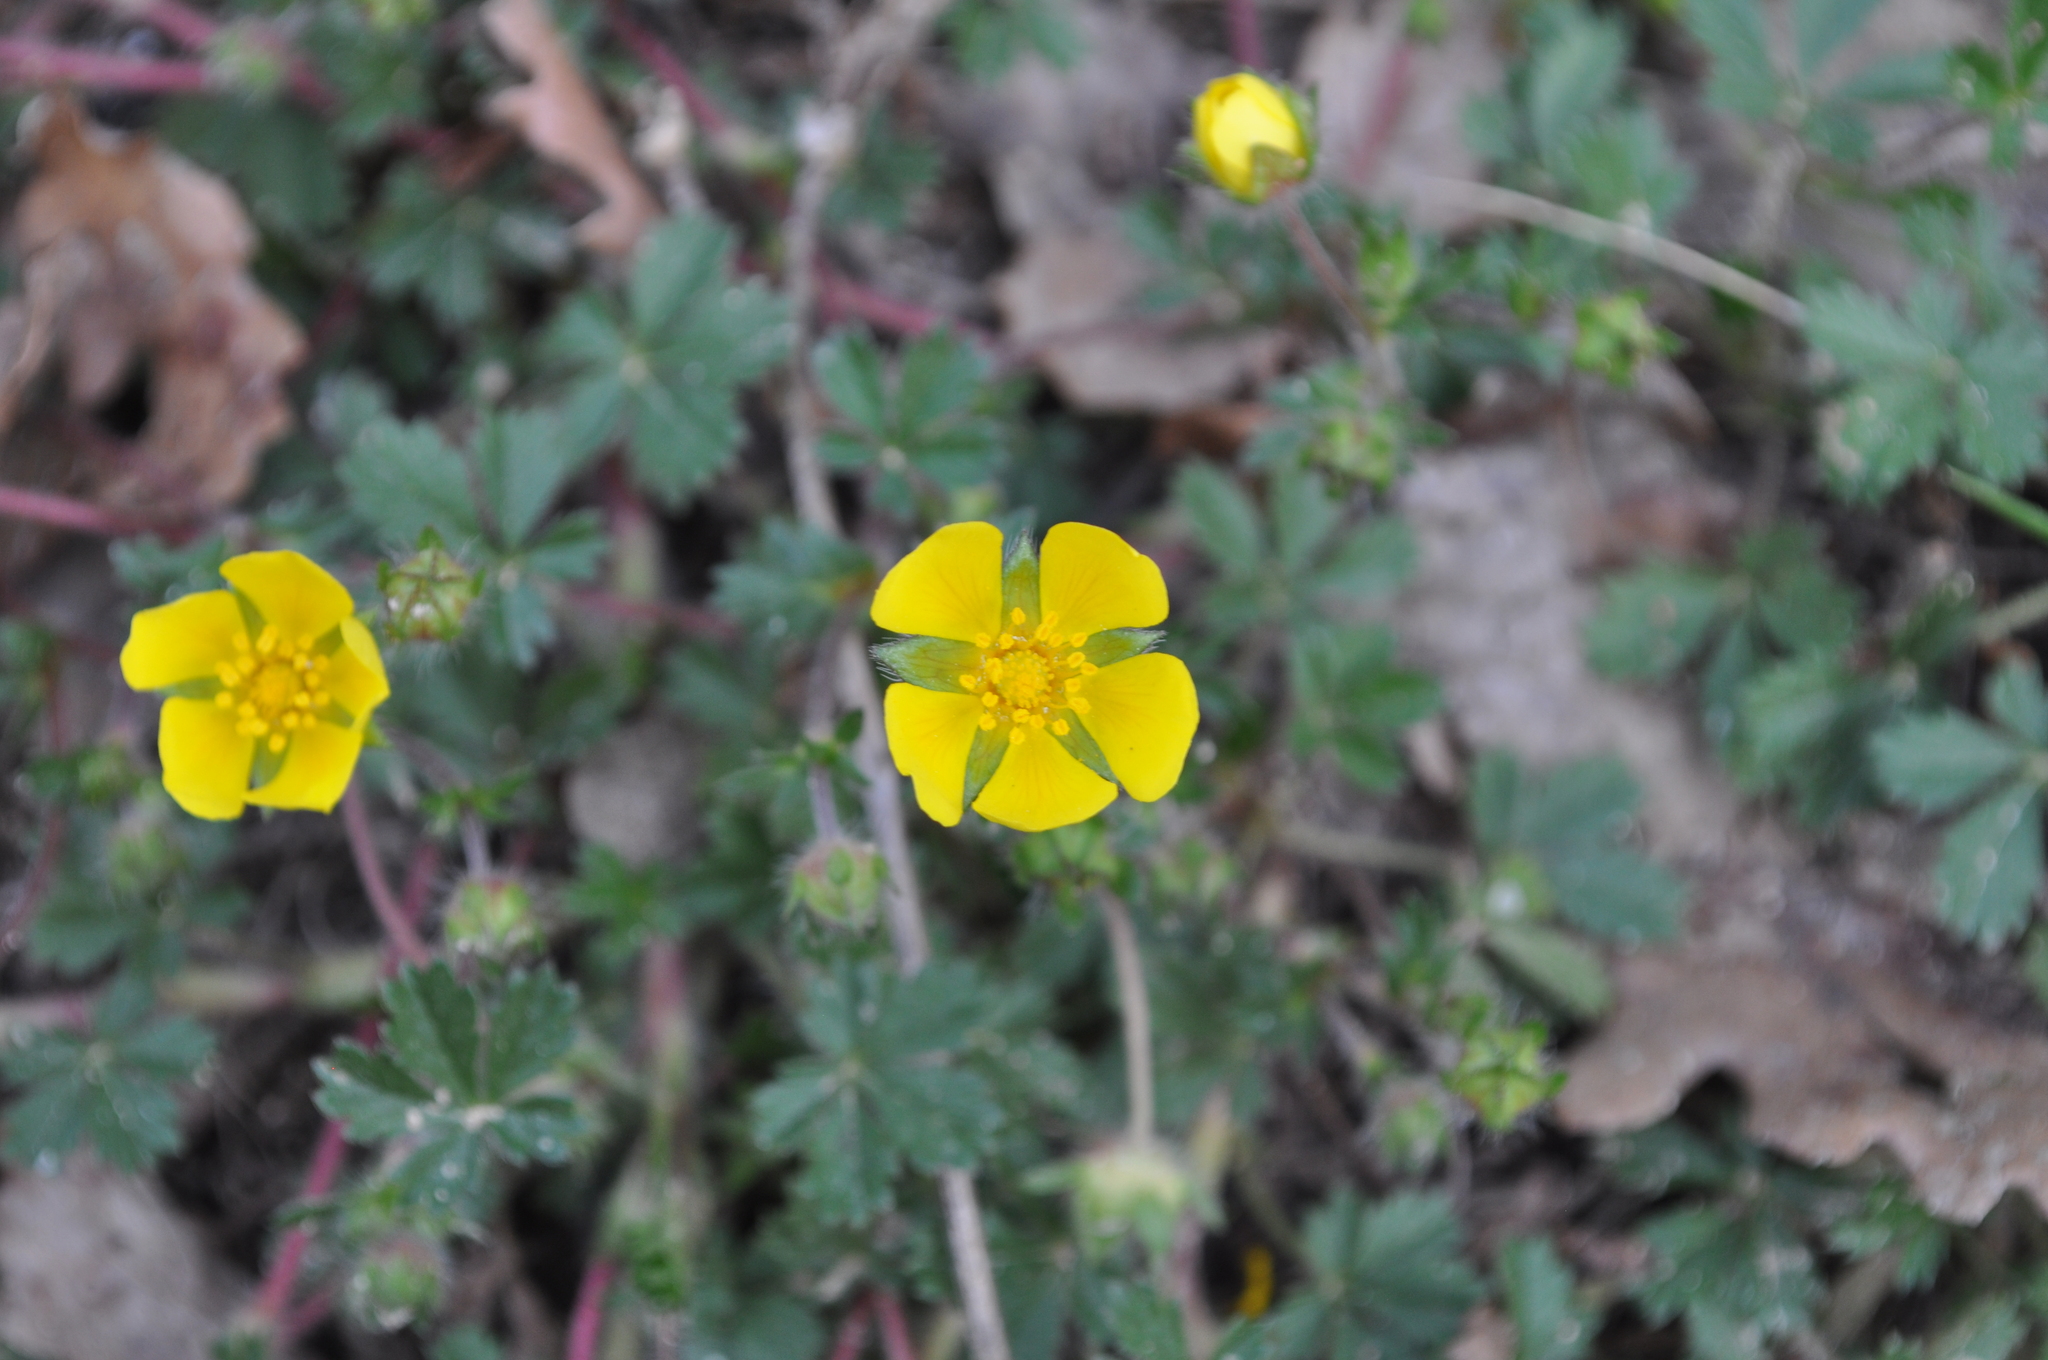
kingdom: Plantae
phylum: Tracheophyta
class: Magnoliopsida
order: Rosales
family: Rosaceae
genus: Potentilla
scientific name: Potentilla verna
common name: Spring cinquefoil
